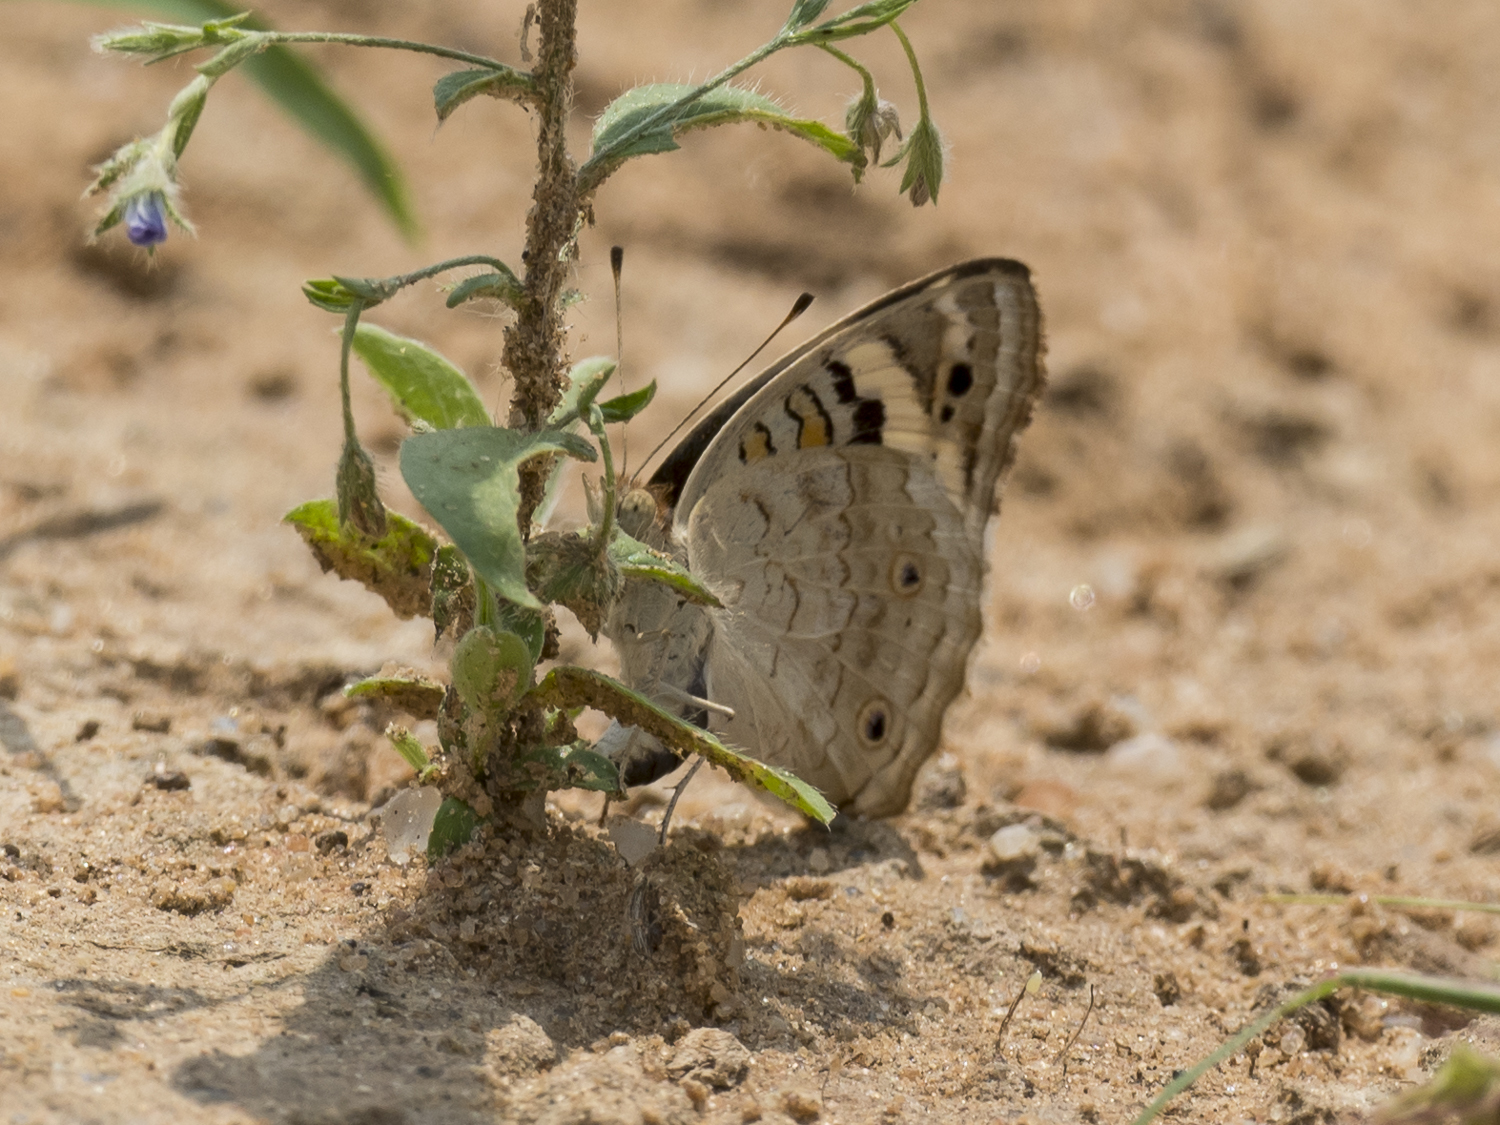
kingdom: Animalia
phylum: Arthropoda
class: Insecta
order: Lepidoptera
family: Nymphalidae
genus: Junonia
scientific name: Junonia orithya
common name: Blue pansy
